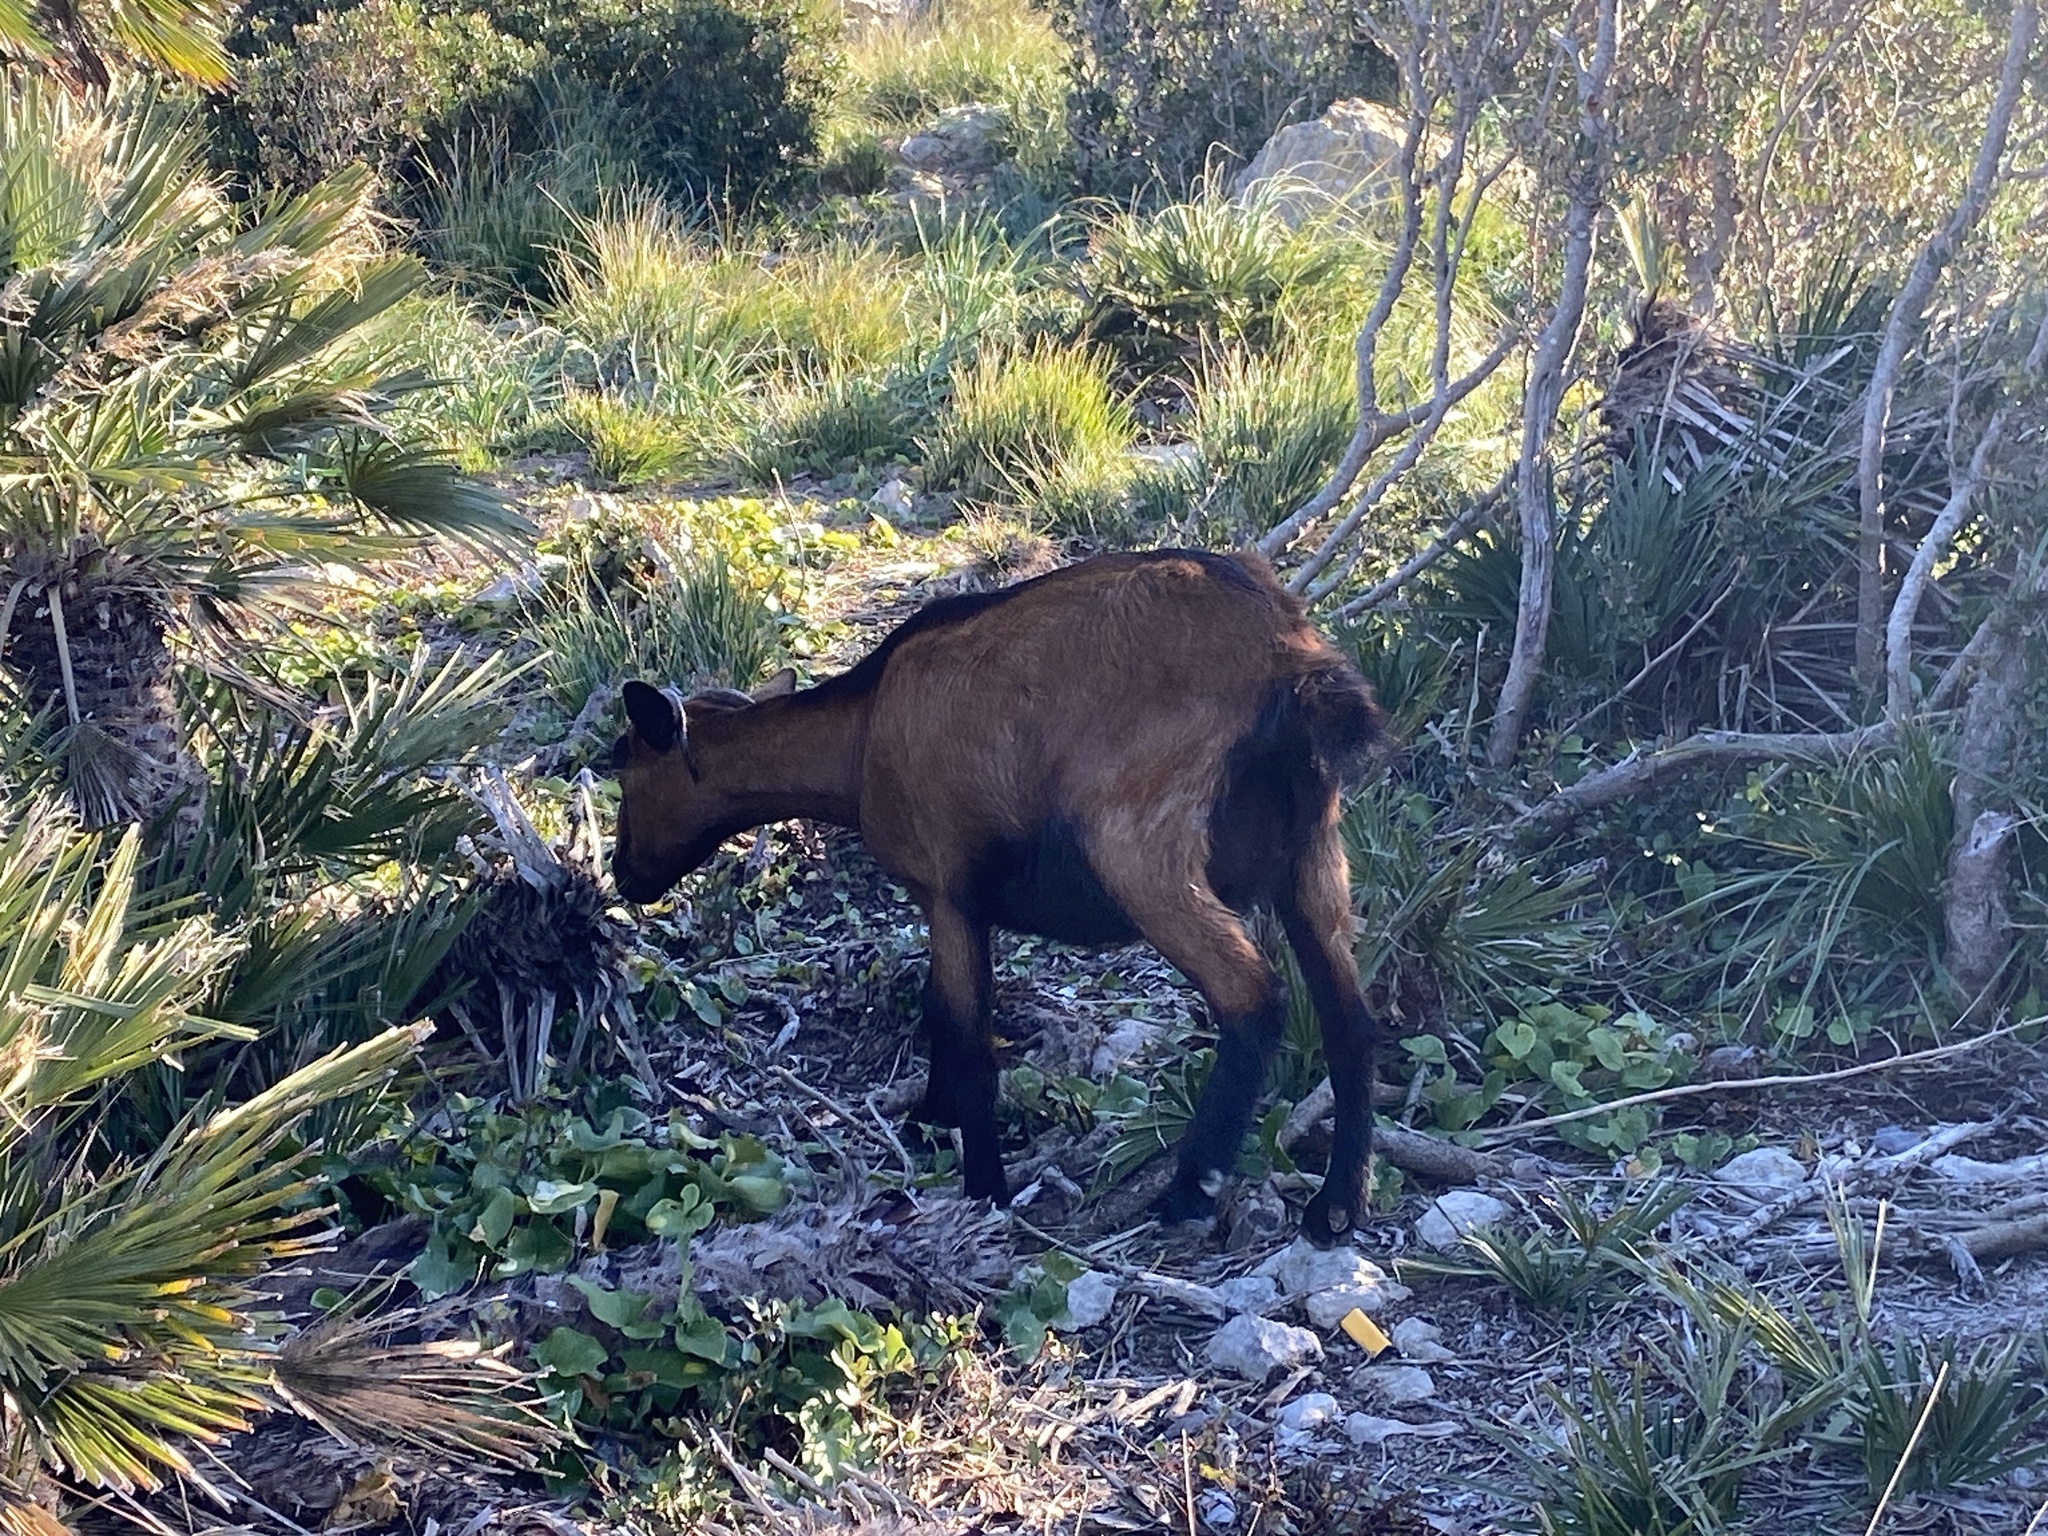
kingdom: Animalia
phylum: Chordata
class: Mammalia
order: Artiodactyla
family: Bovidae
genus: Capra
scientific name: Capra hircus
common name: Domestic goat
